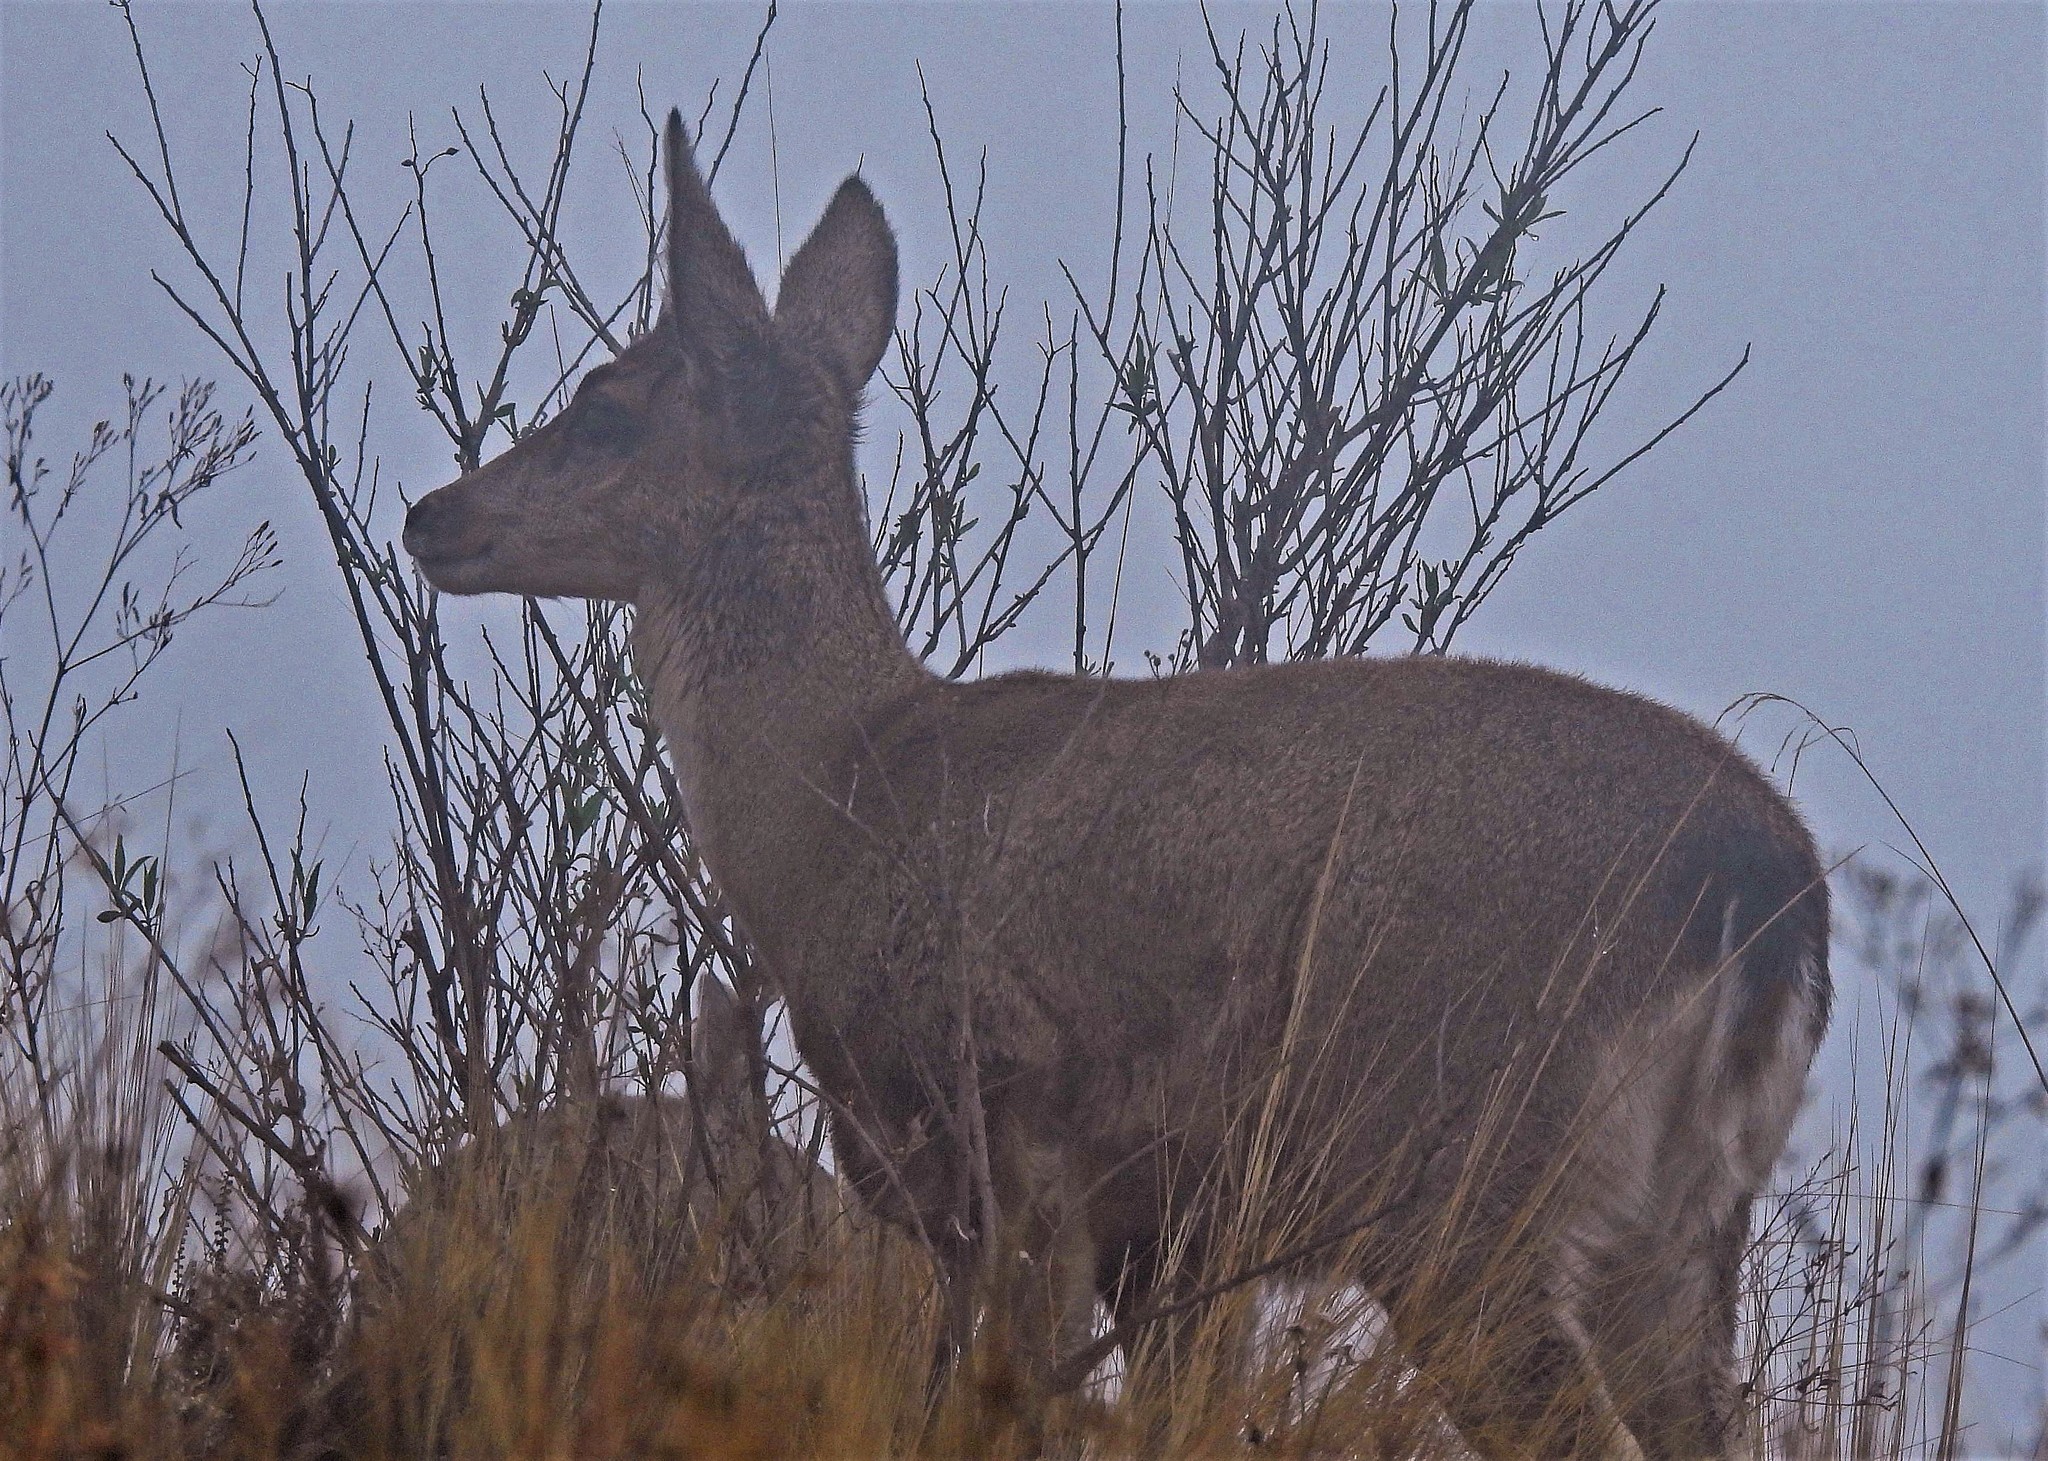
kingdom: Animalia
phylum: Chordata
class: Mammalia
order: Artiodactyla
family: Cervidae
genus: Hippocamelus
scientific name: Hippocamelus antisensis
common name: Taruca
